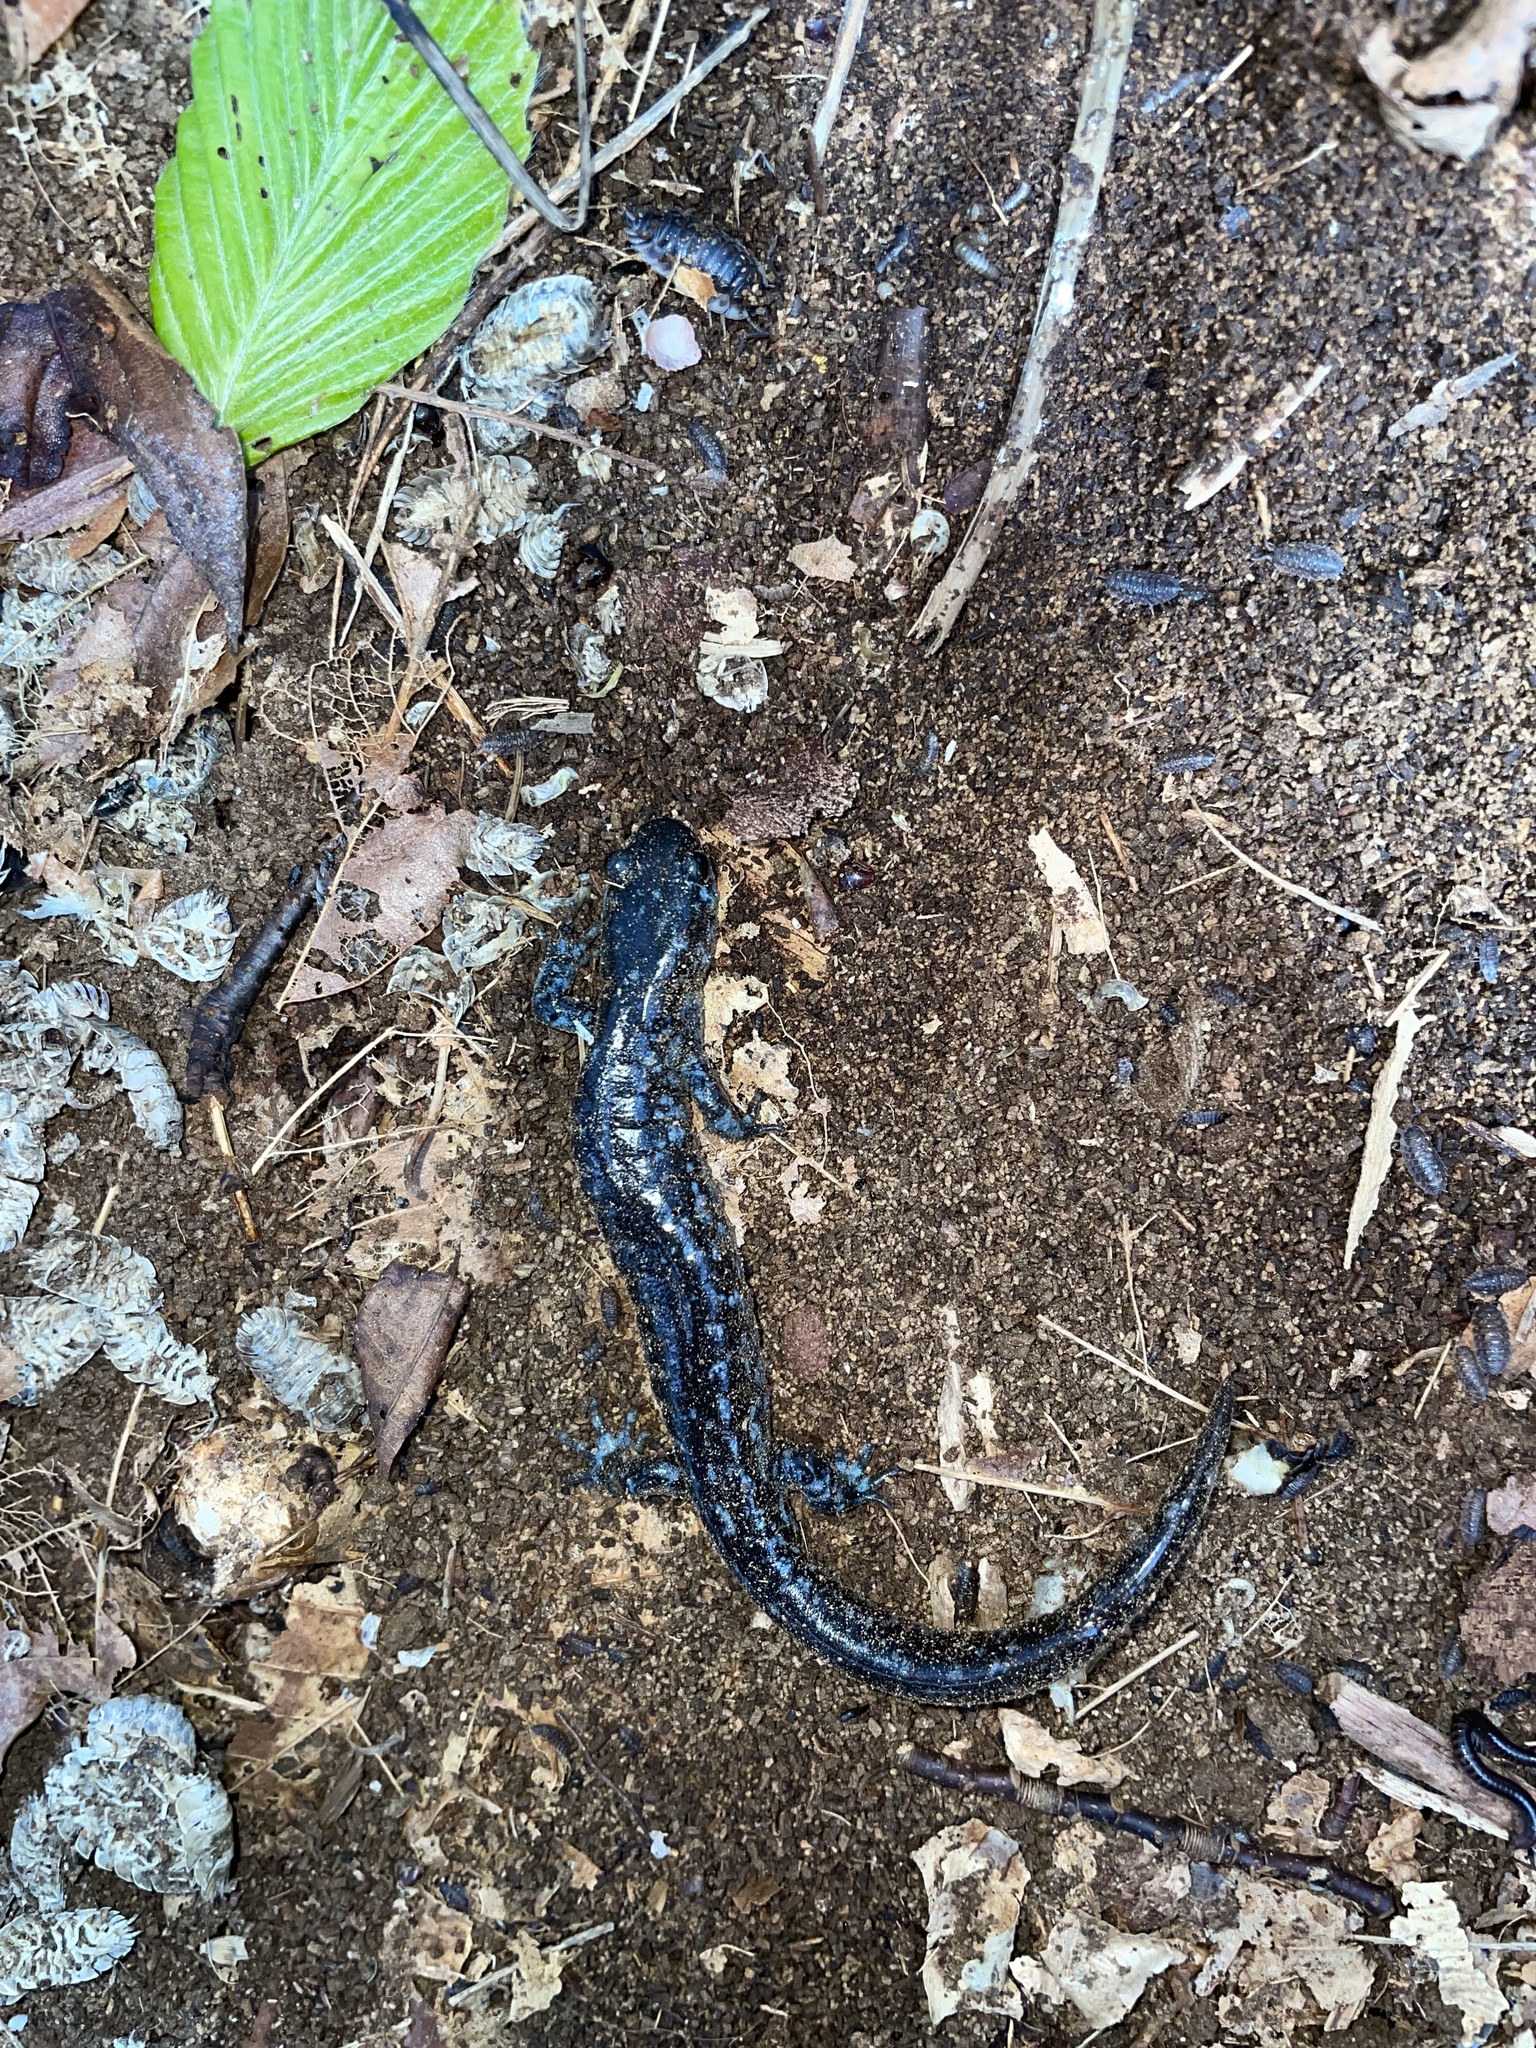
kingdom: Animalia
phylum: Chordata
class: Amphibia
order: Caudata
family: Ambystomatidae
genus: Ambystoma
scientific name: Ambystoma laterale
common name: Blue-spotted salamander
